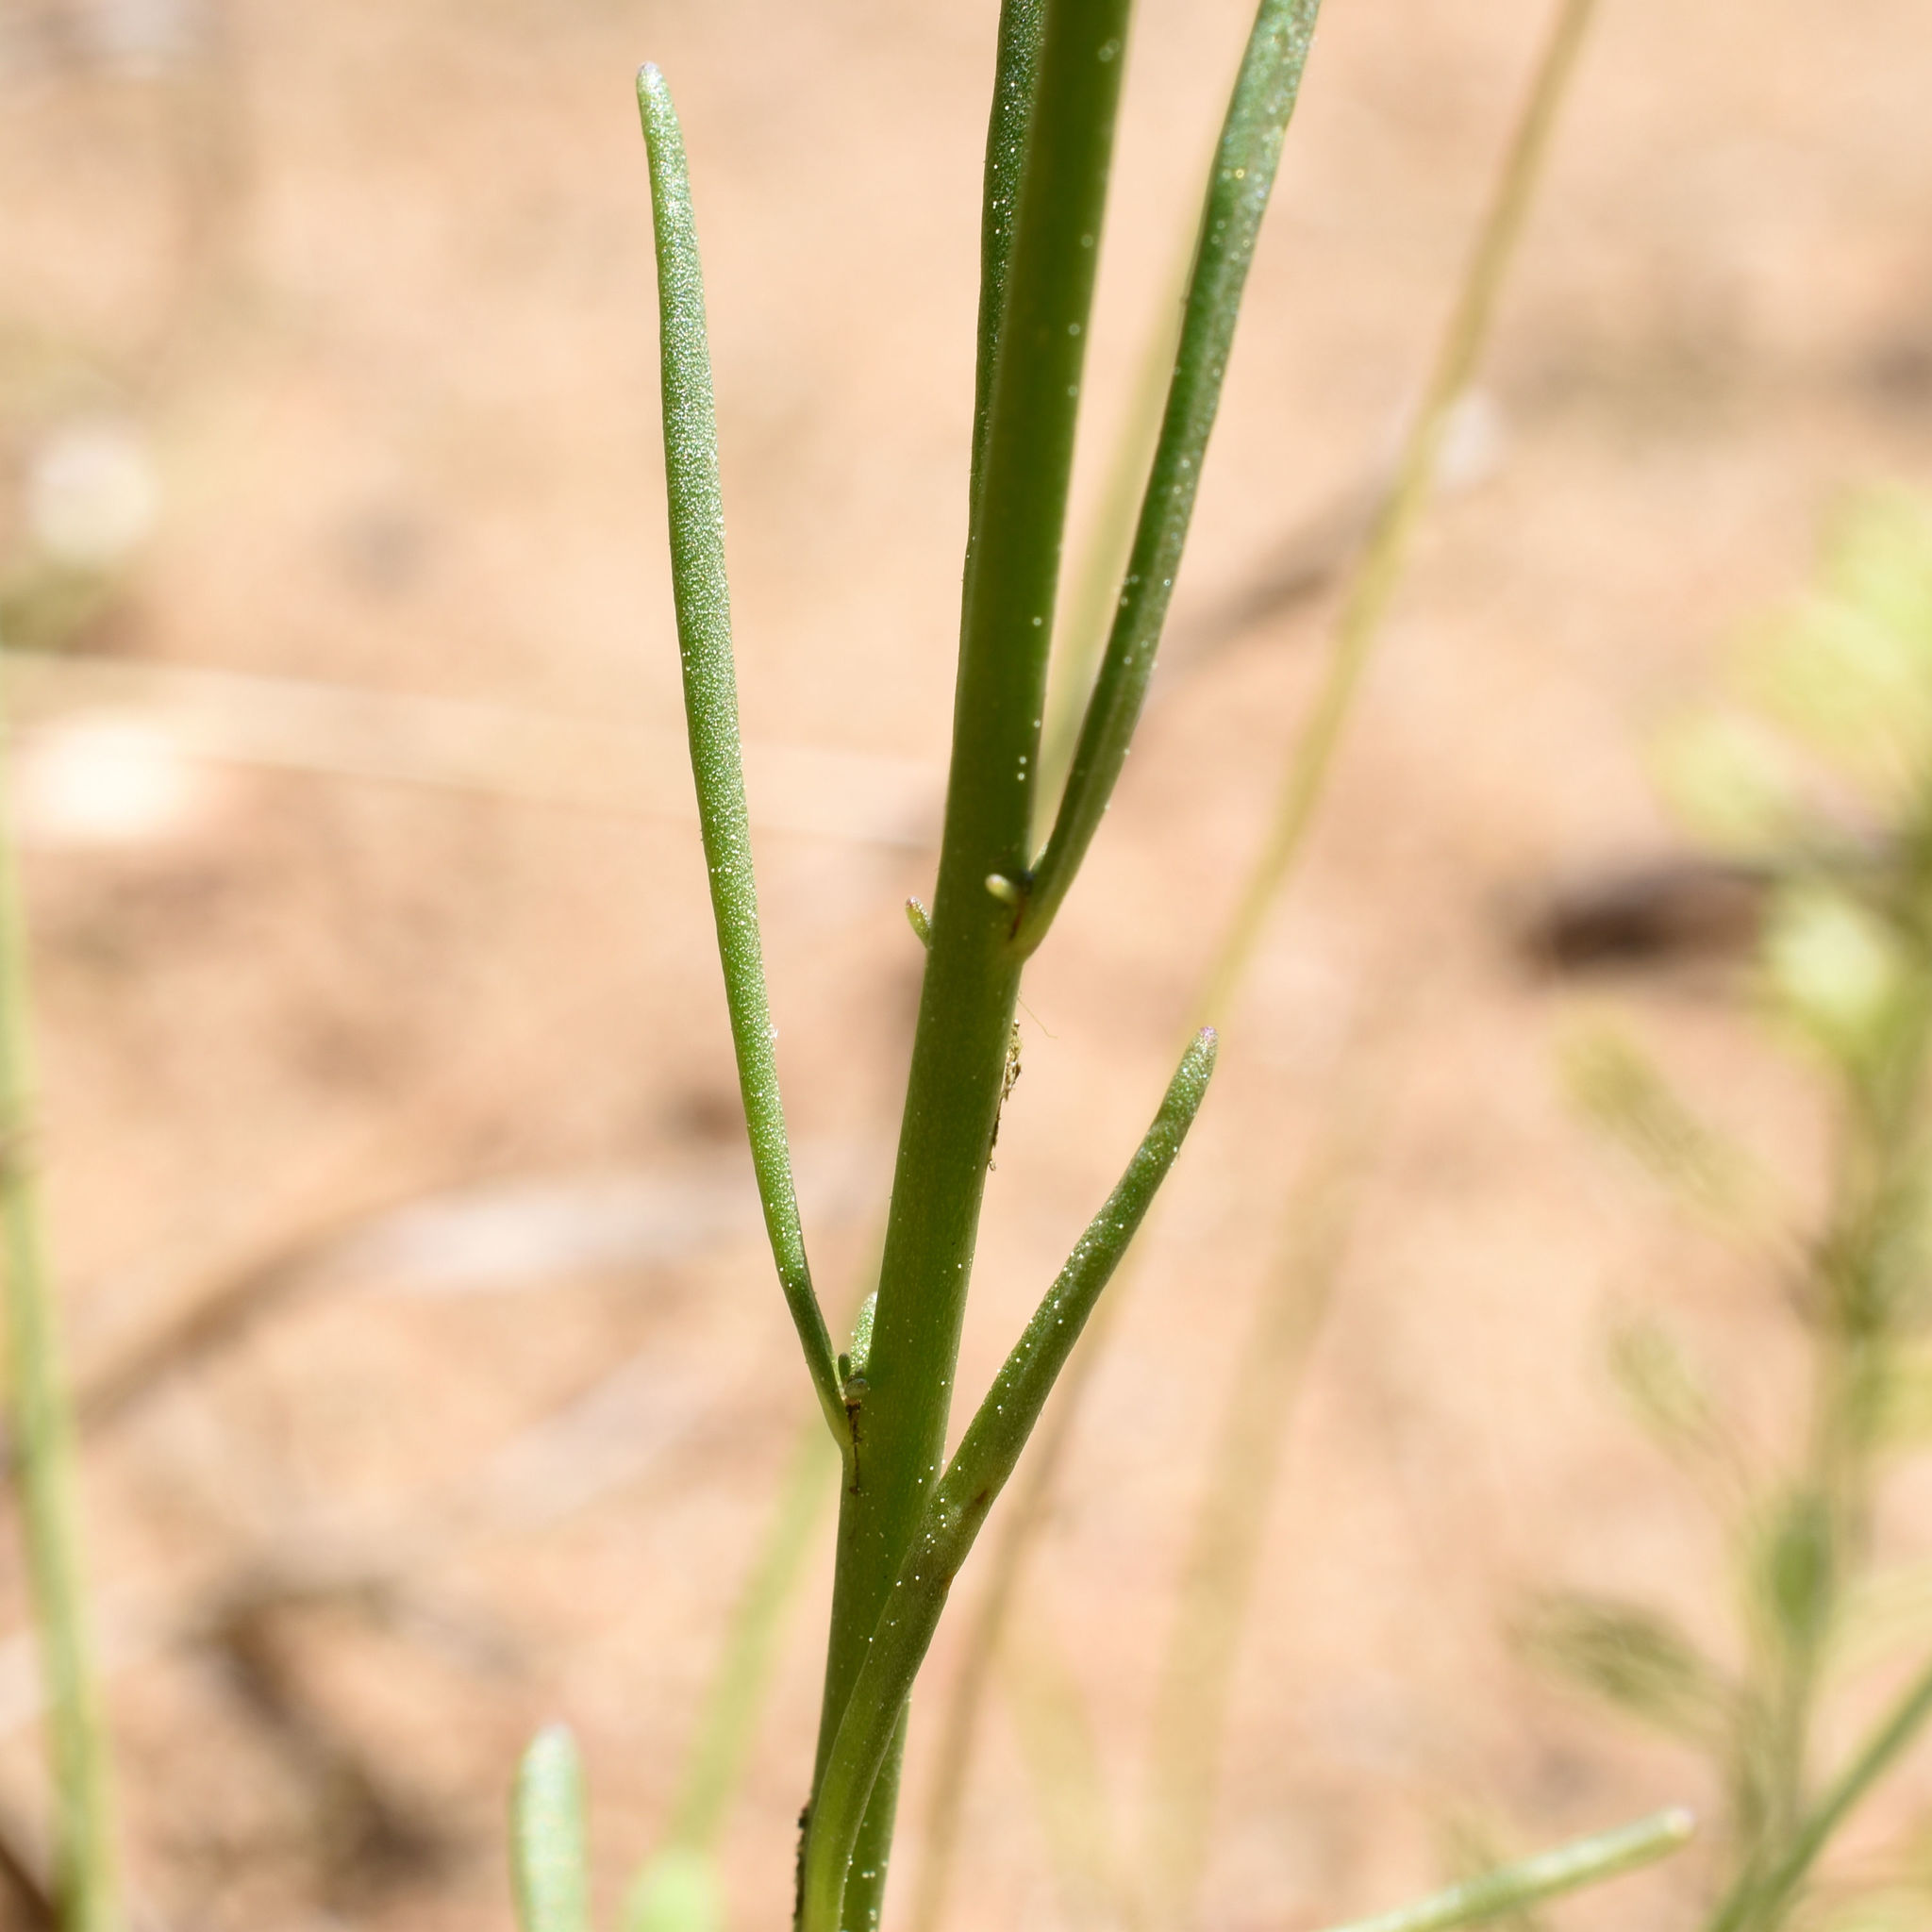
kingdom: Plantae
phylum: Tracheophyta
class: Magnoliopsida
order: Lamiales
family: Plantaginaceae
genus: Nuttallanthus
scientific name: Nuttallanthus canadensis
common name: Blue toadflax
